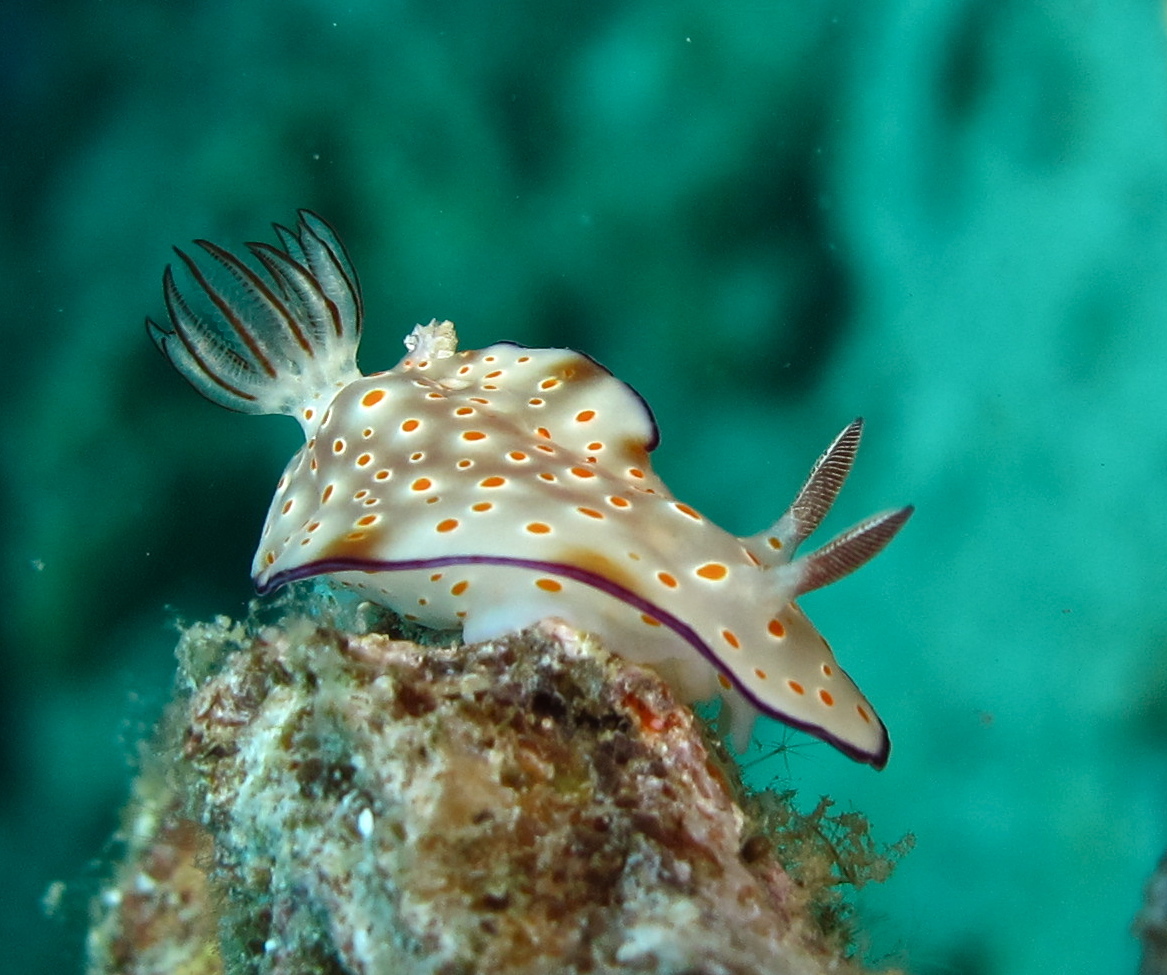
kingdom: Animalia
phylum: Mollusca
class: Gastropoda
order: Nudibranchia
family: Chromodorididae
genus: Hypselodoris
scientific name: Hypselodoris tryoni
